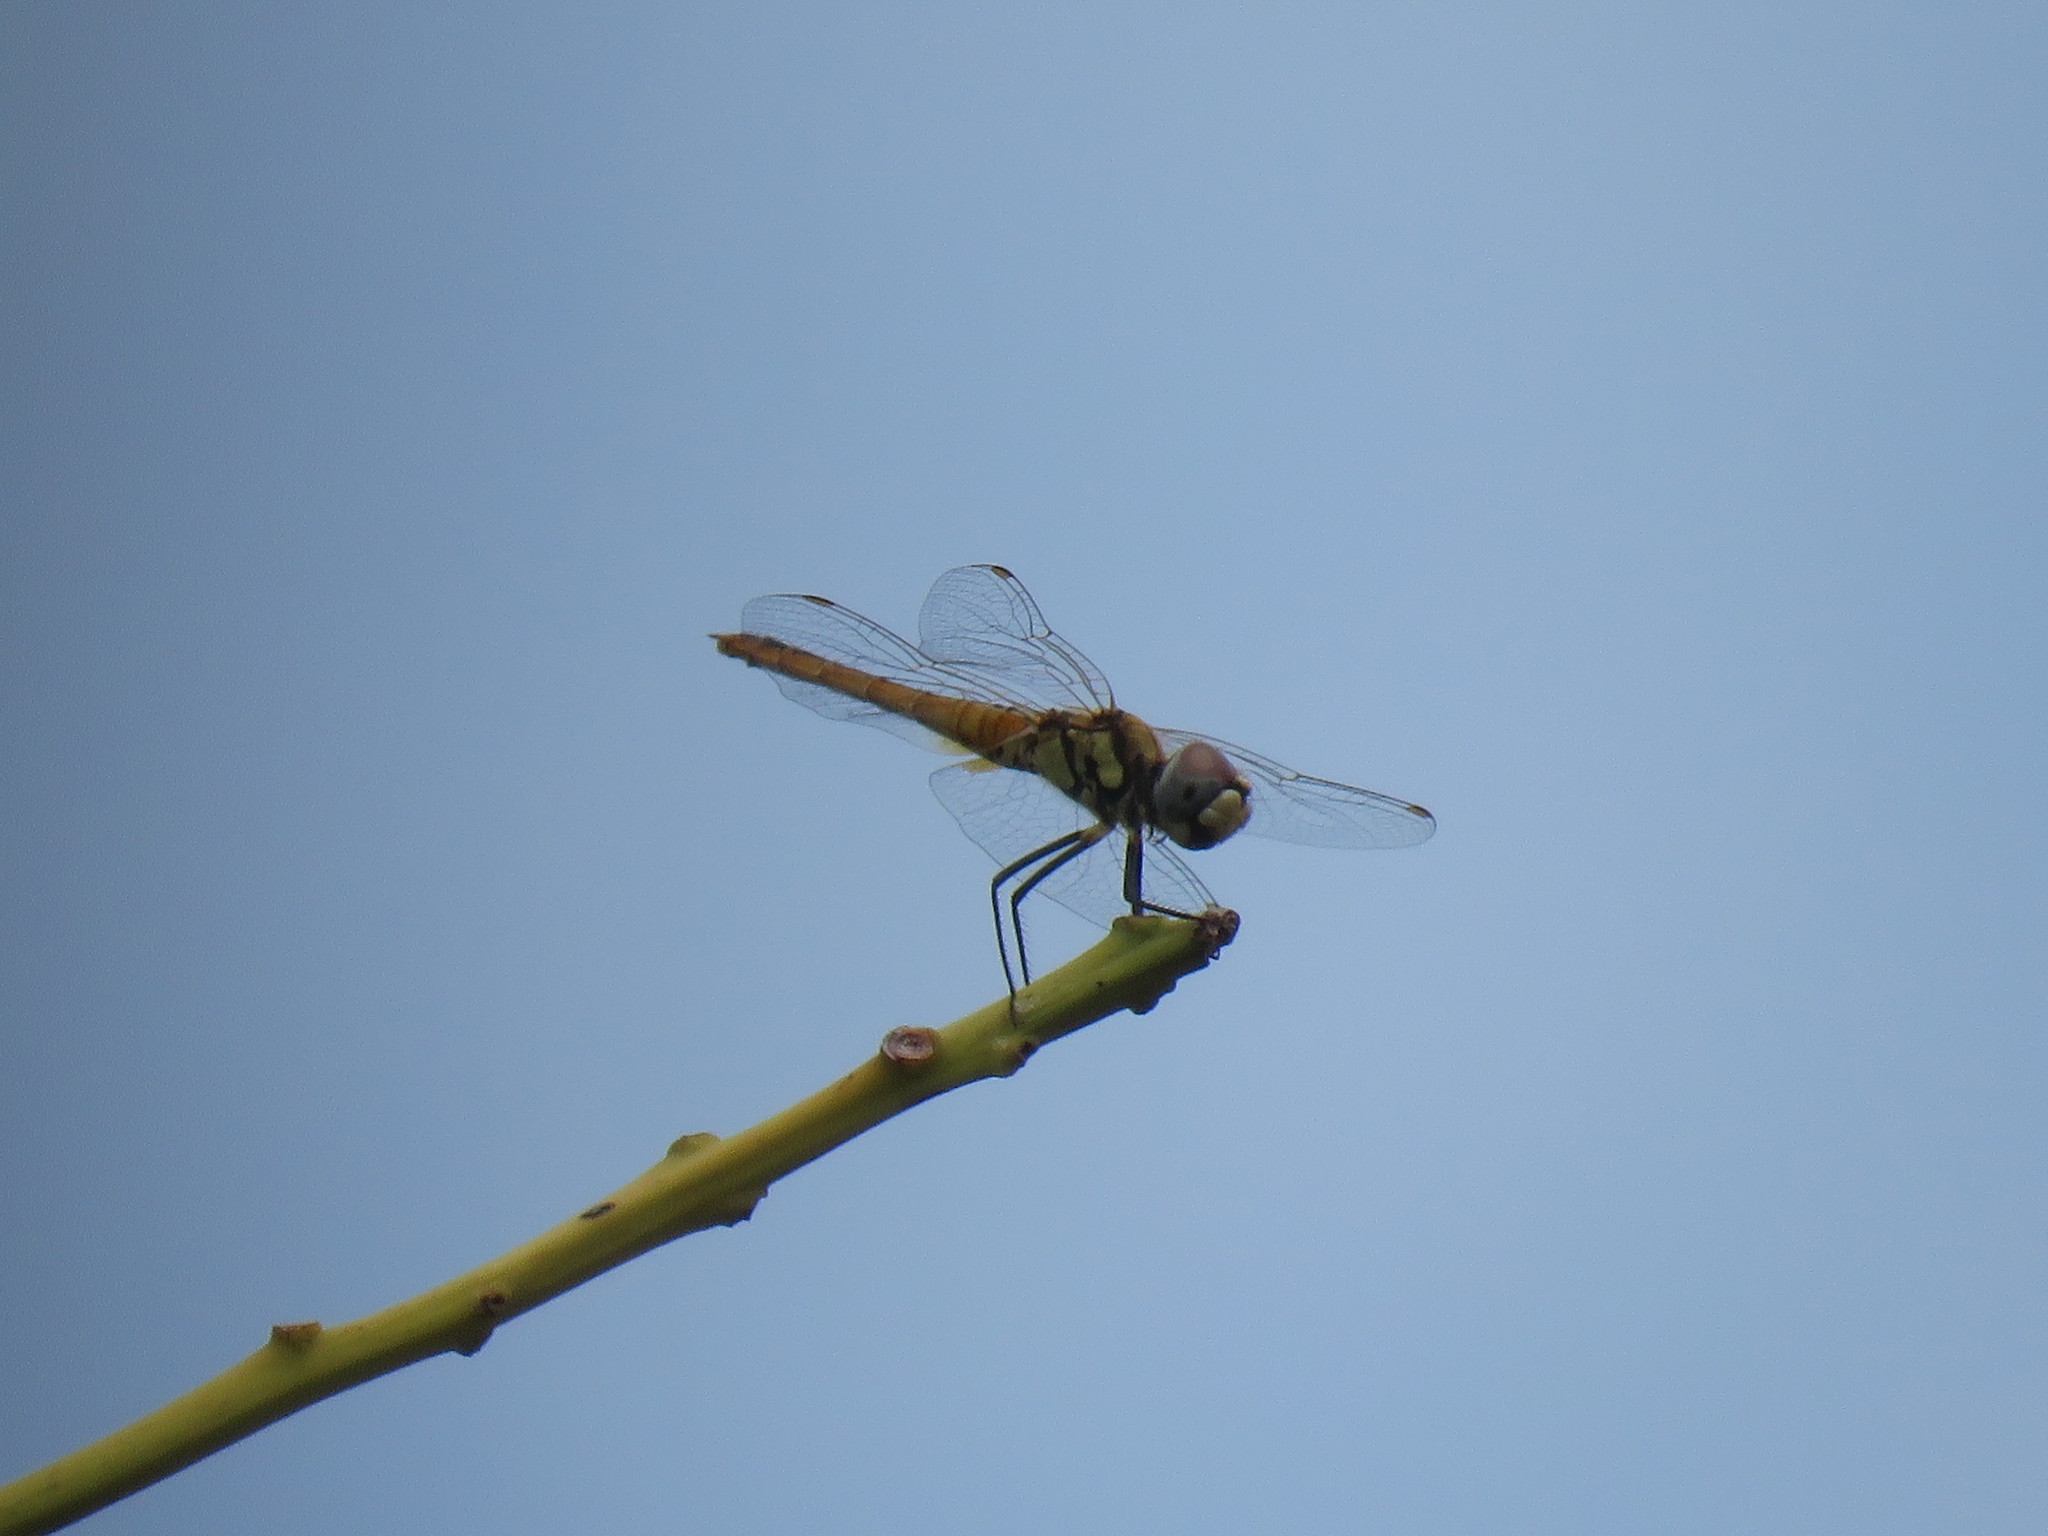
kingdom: Animalia
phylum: Arthropoda
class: Insecta
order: Odonata
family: Libellulidae
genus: Macrodiplax
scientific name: Macrodiplax cora
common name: Coastal glider
